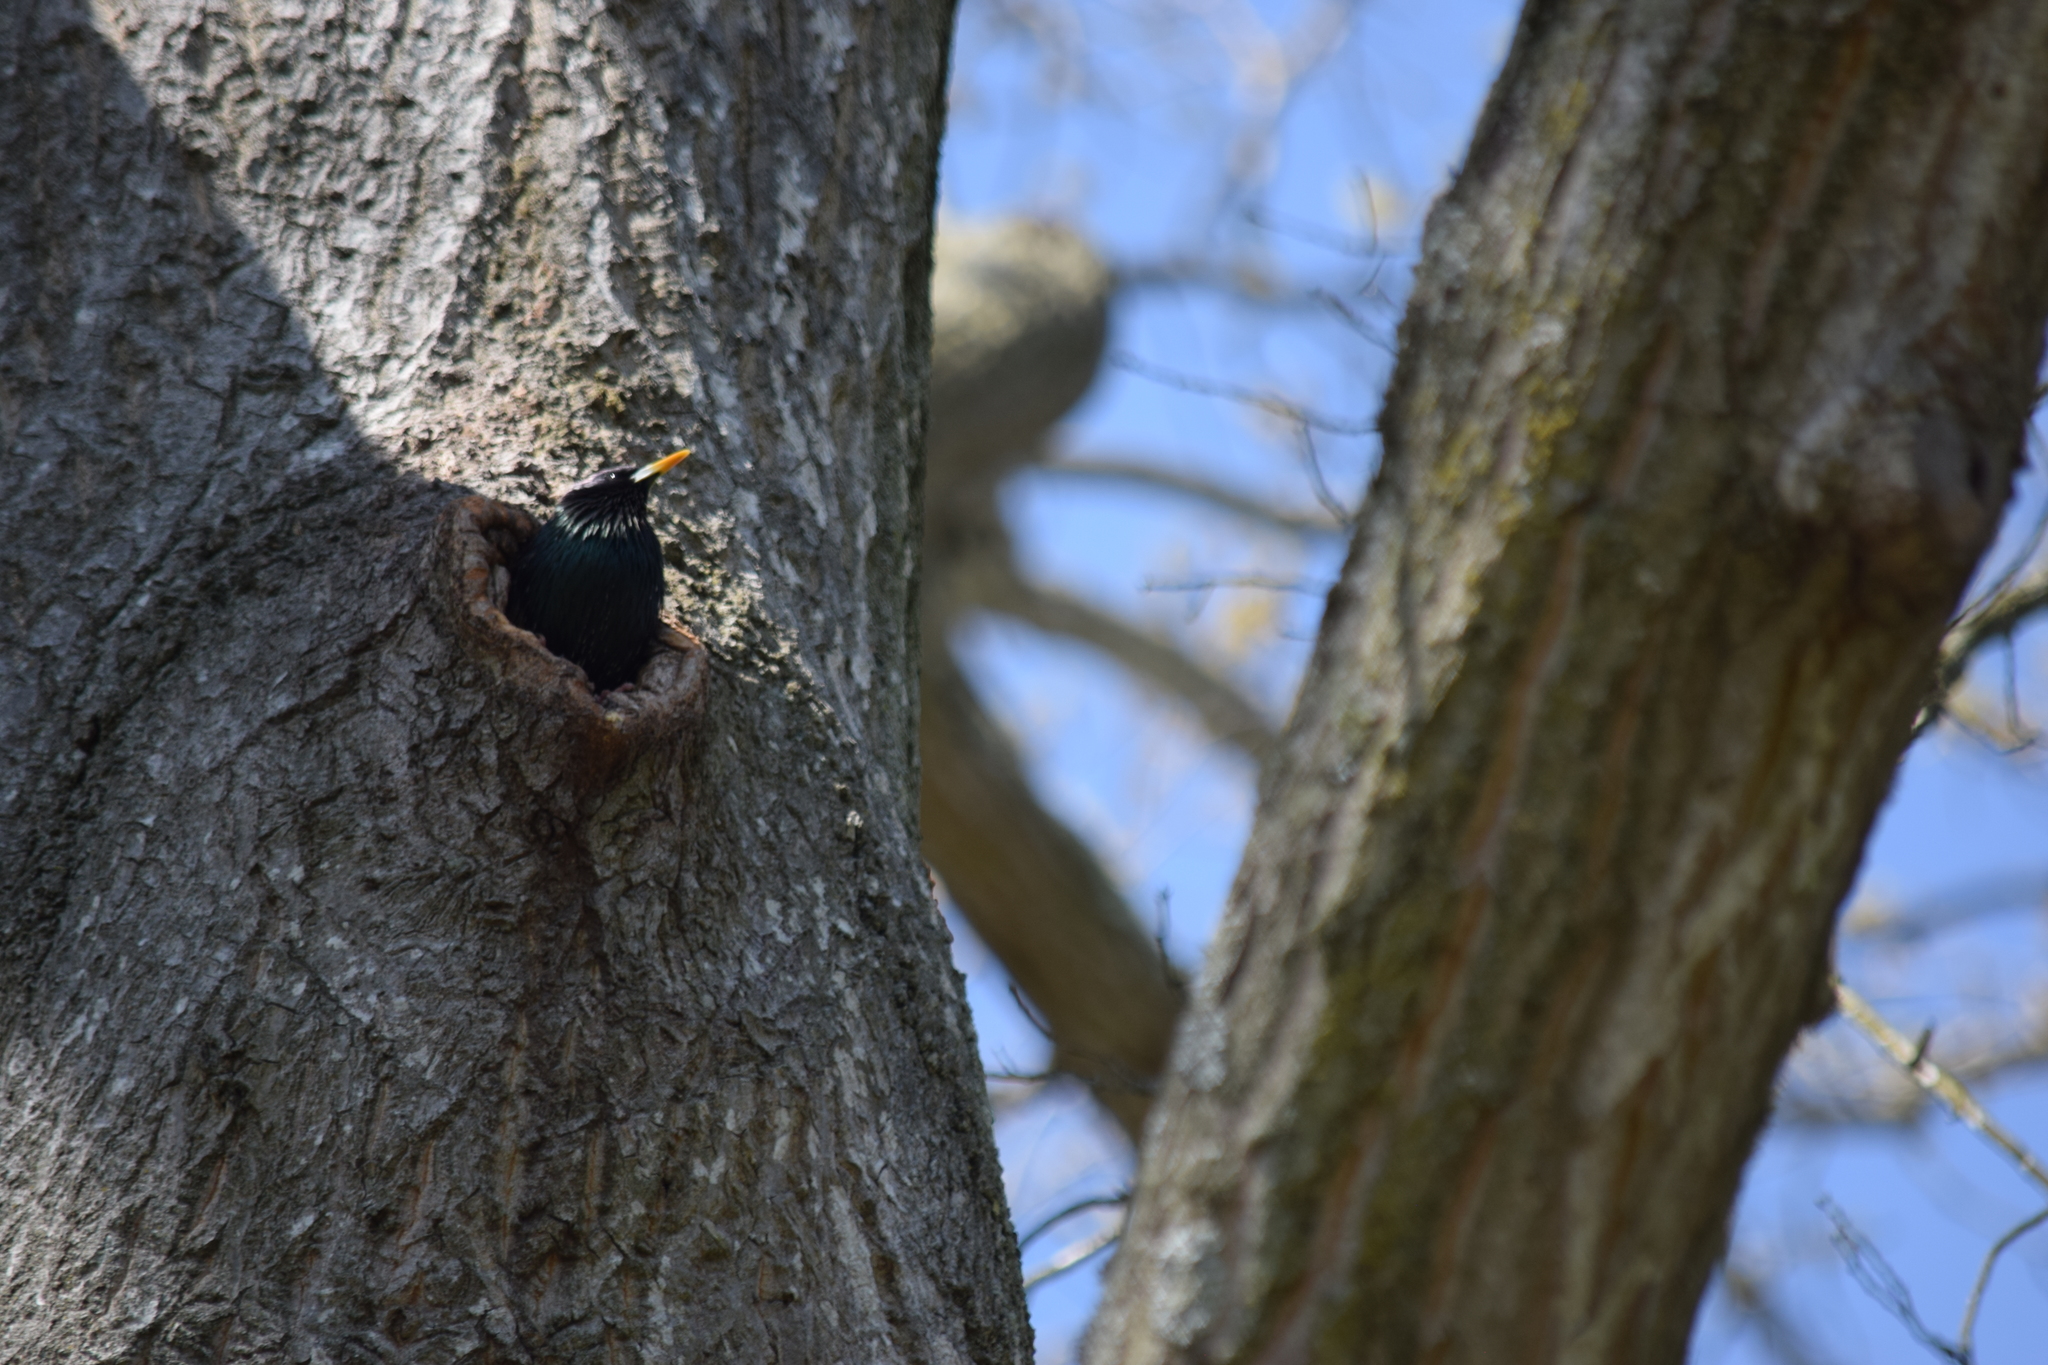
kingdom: Animalia
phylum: Chordata
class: Aves
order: Passeriformes
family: Sturnidae
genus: Sturnus
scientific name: Sturnus vulgaris
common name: Common starling
